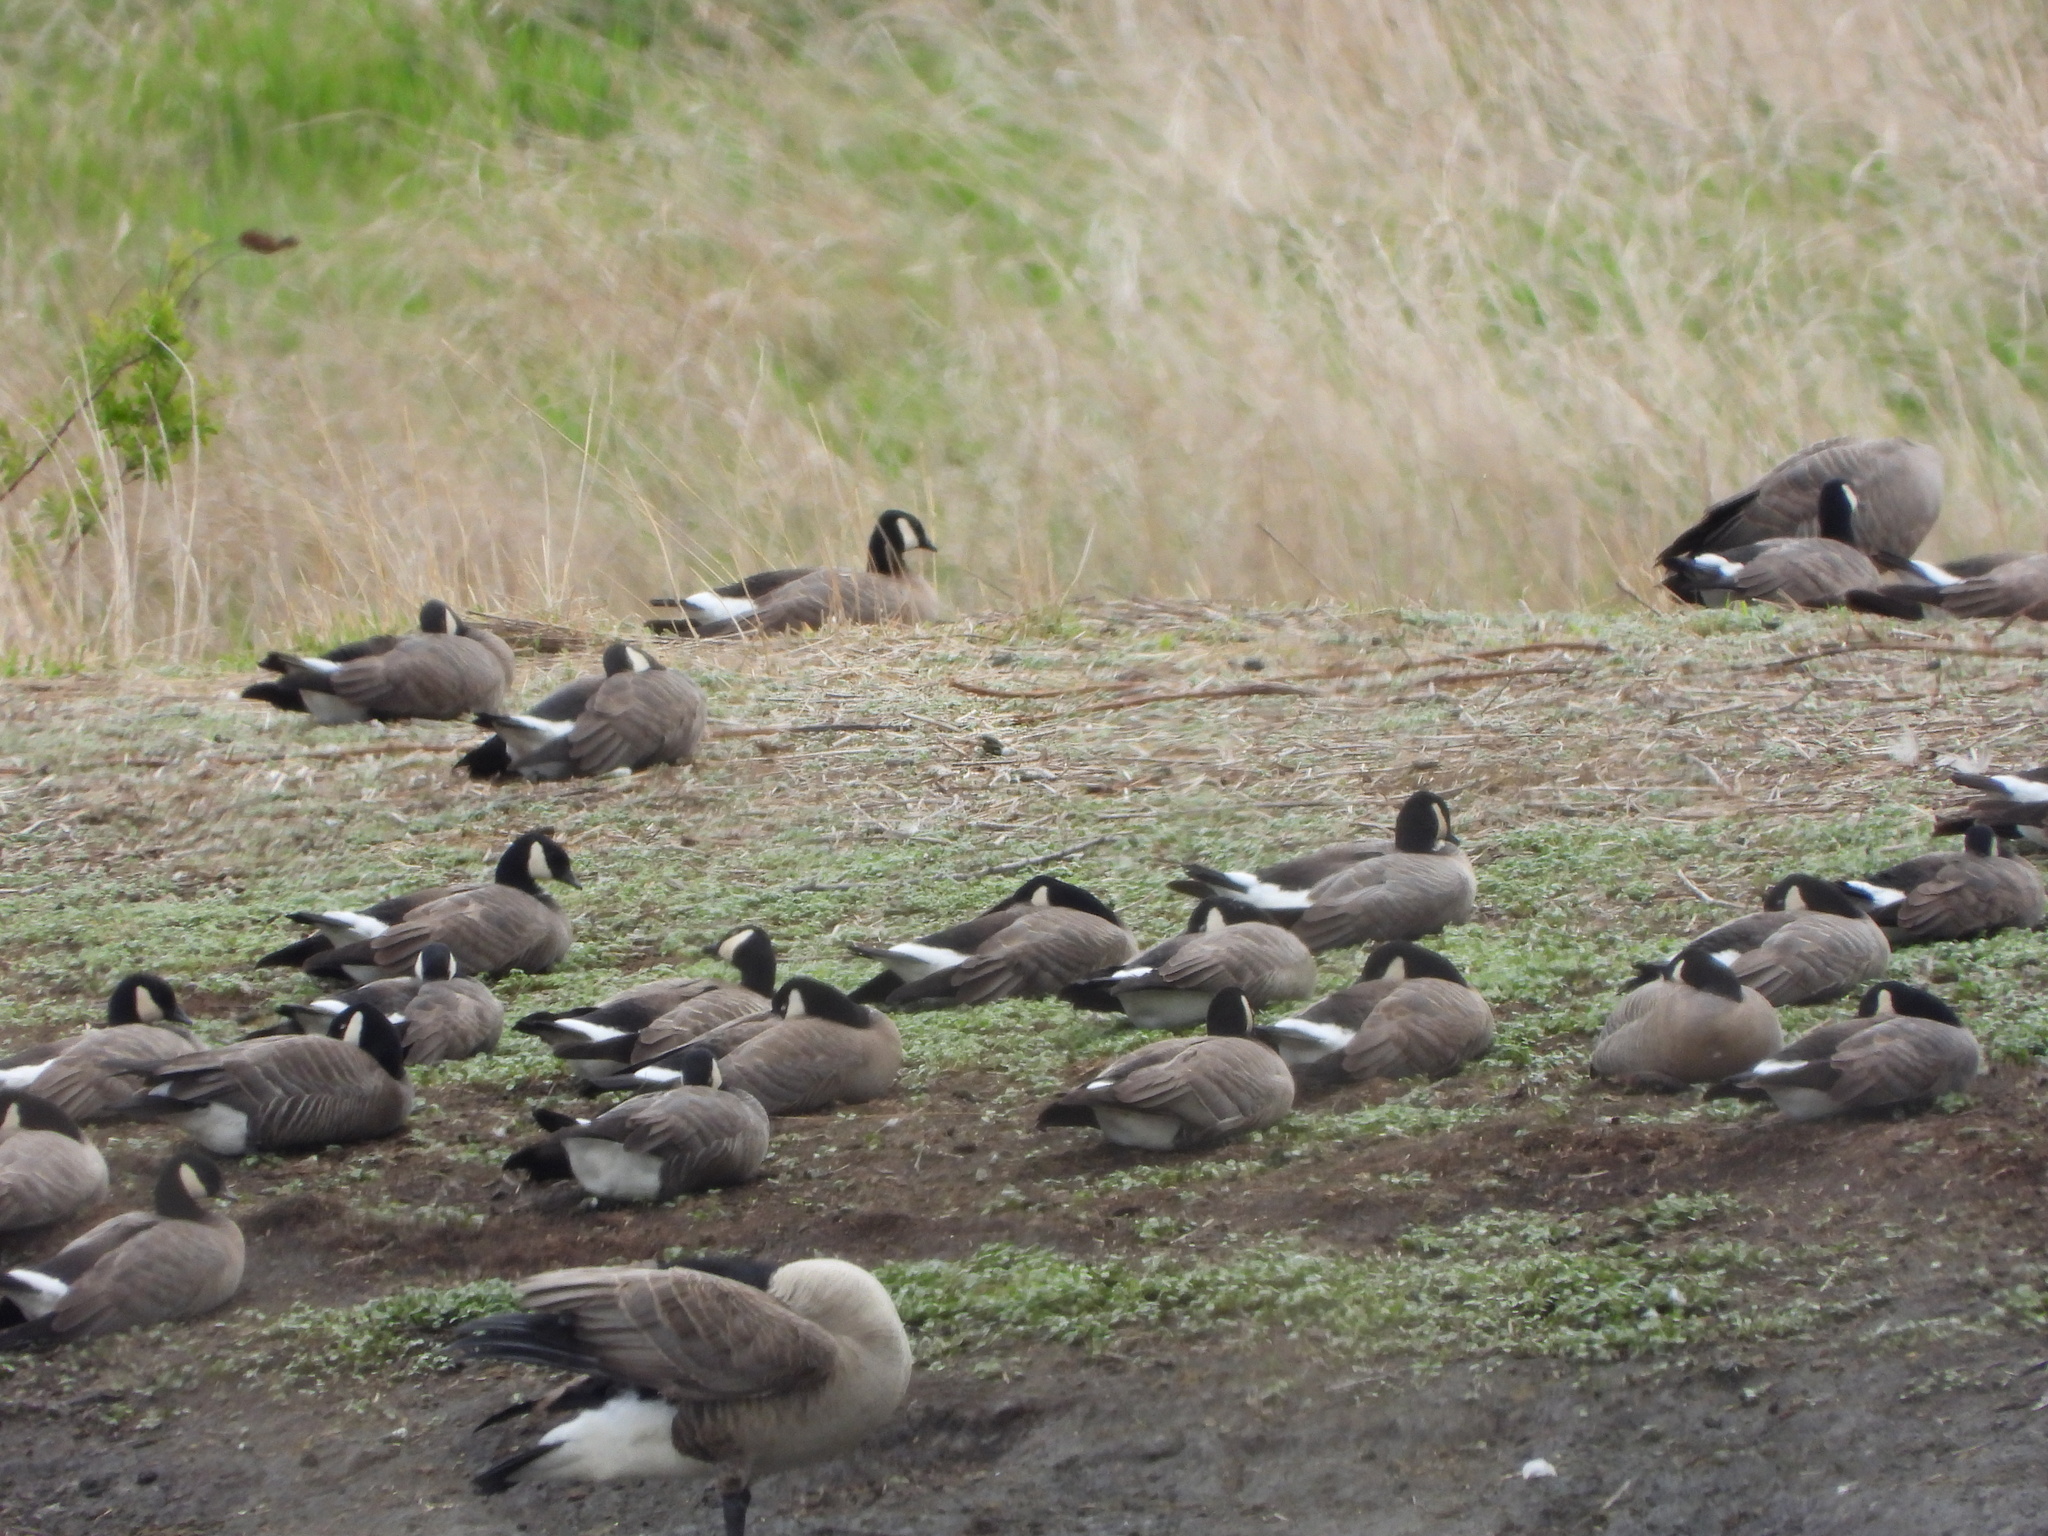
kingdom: Animalia
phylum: Chordata
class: Aves
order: Anseriformes
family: Anatidae
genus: Branta
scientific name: Branta hutchinsii
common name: Cackling goose
